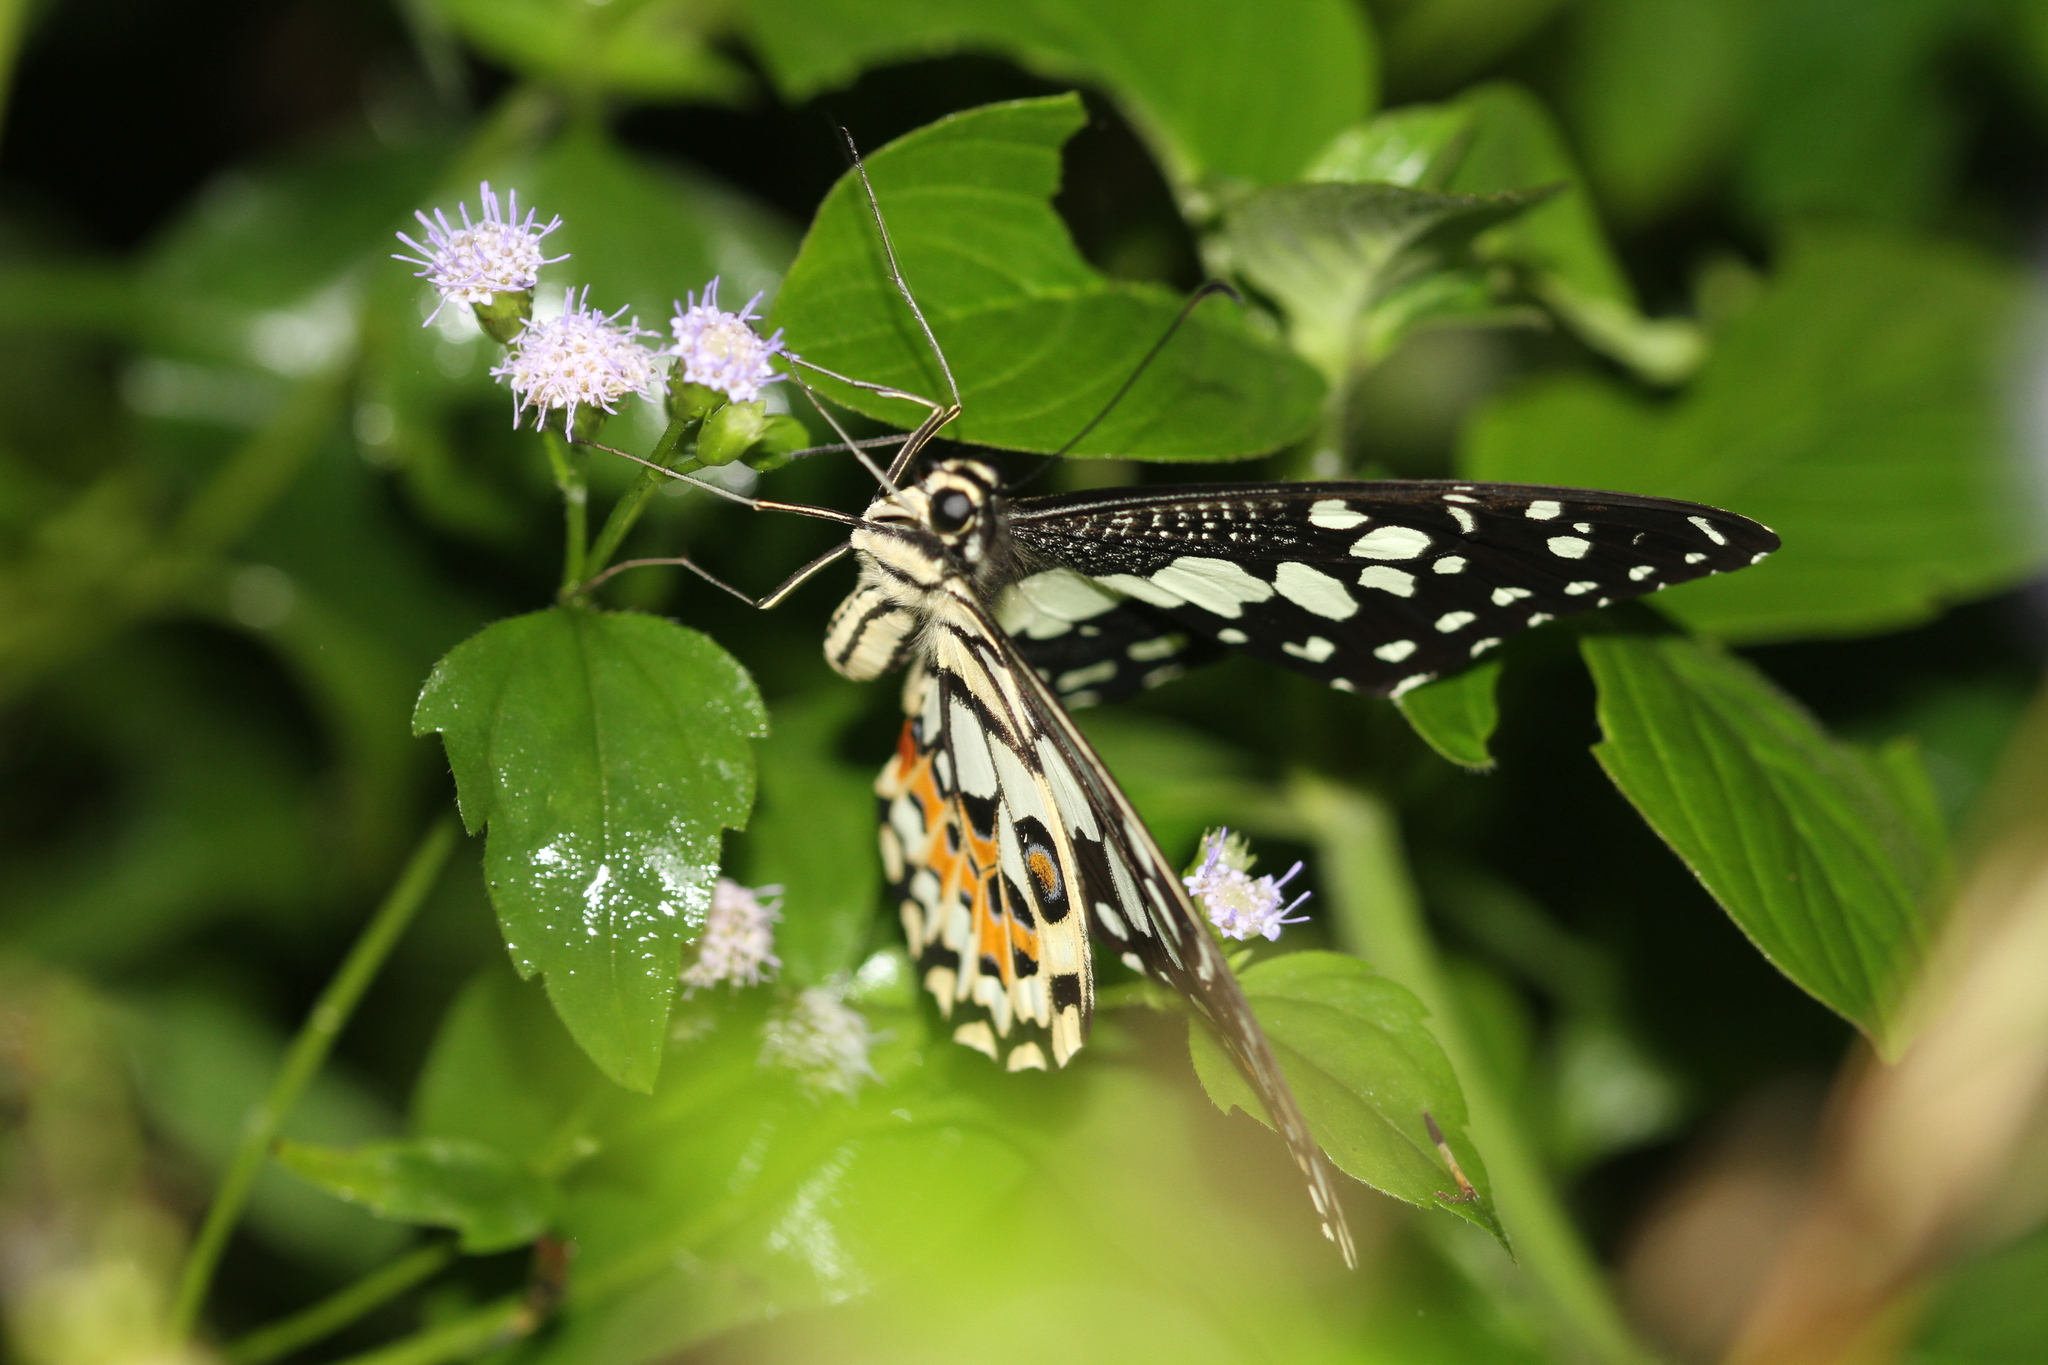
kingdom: Animalia
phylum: Arthropoda
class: Insecta
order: Lepidoptera
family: Papilionidae
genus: Papilio
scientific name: Papilio demoleus
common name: Lime butterfly
